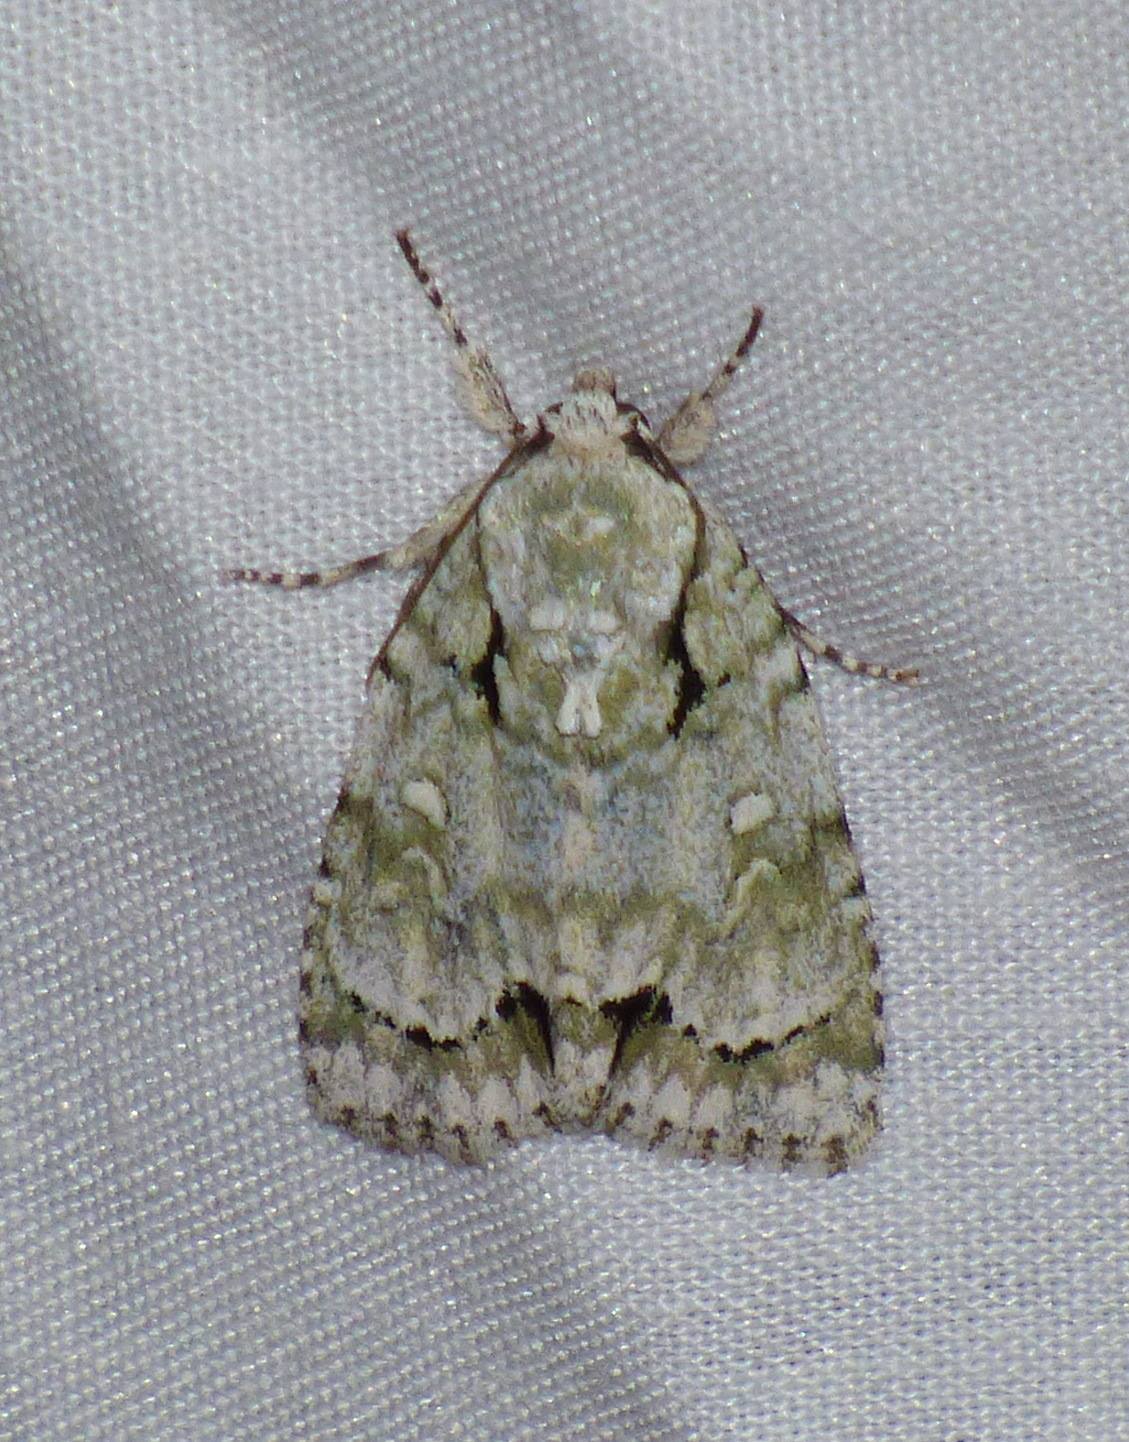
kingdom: Animalia
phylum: Arthropoda
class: Insecta
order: Lepidoptera
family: Noctuidae
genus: Acronicta
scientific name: Acronicta vinnula
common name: Delightful dagger
